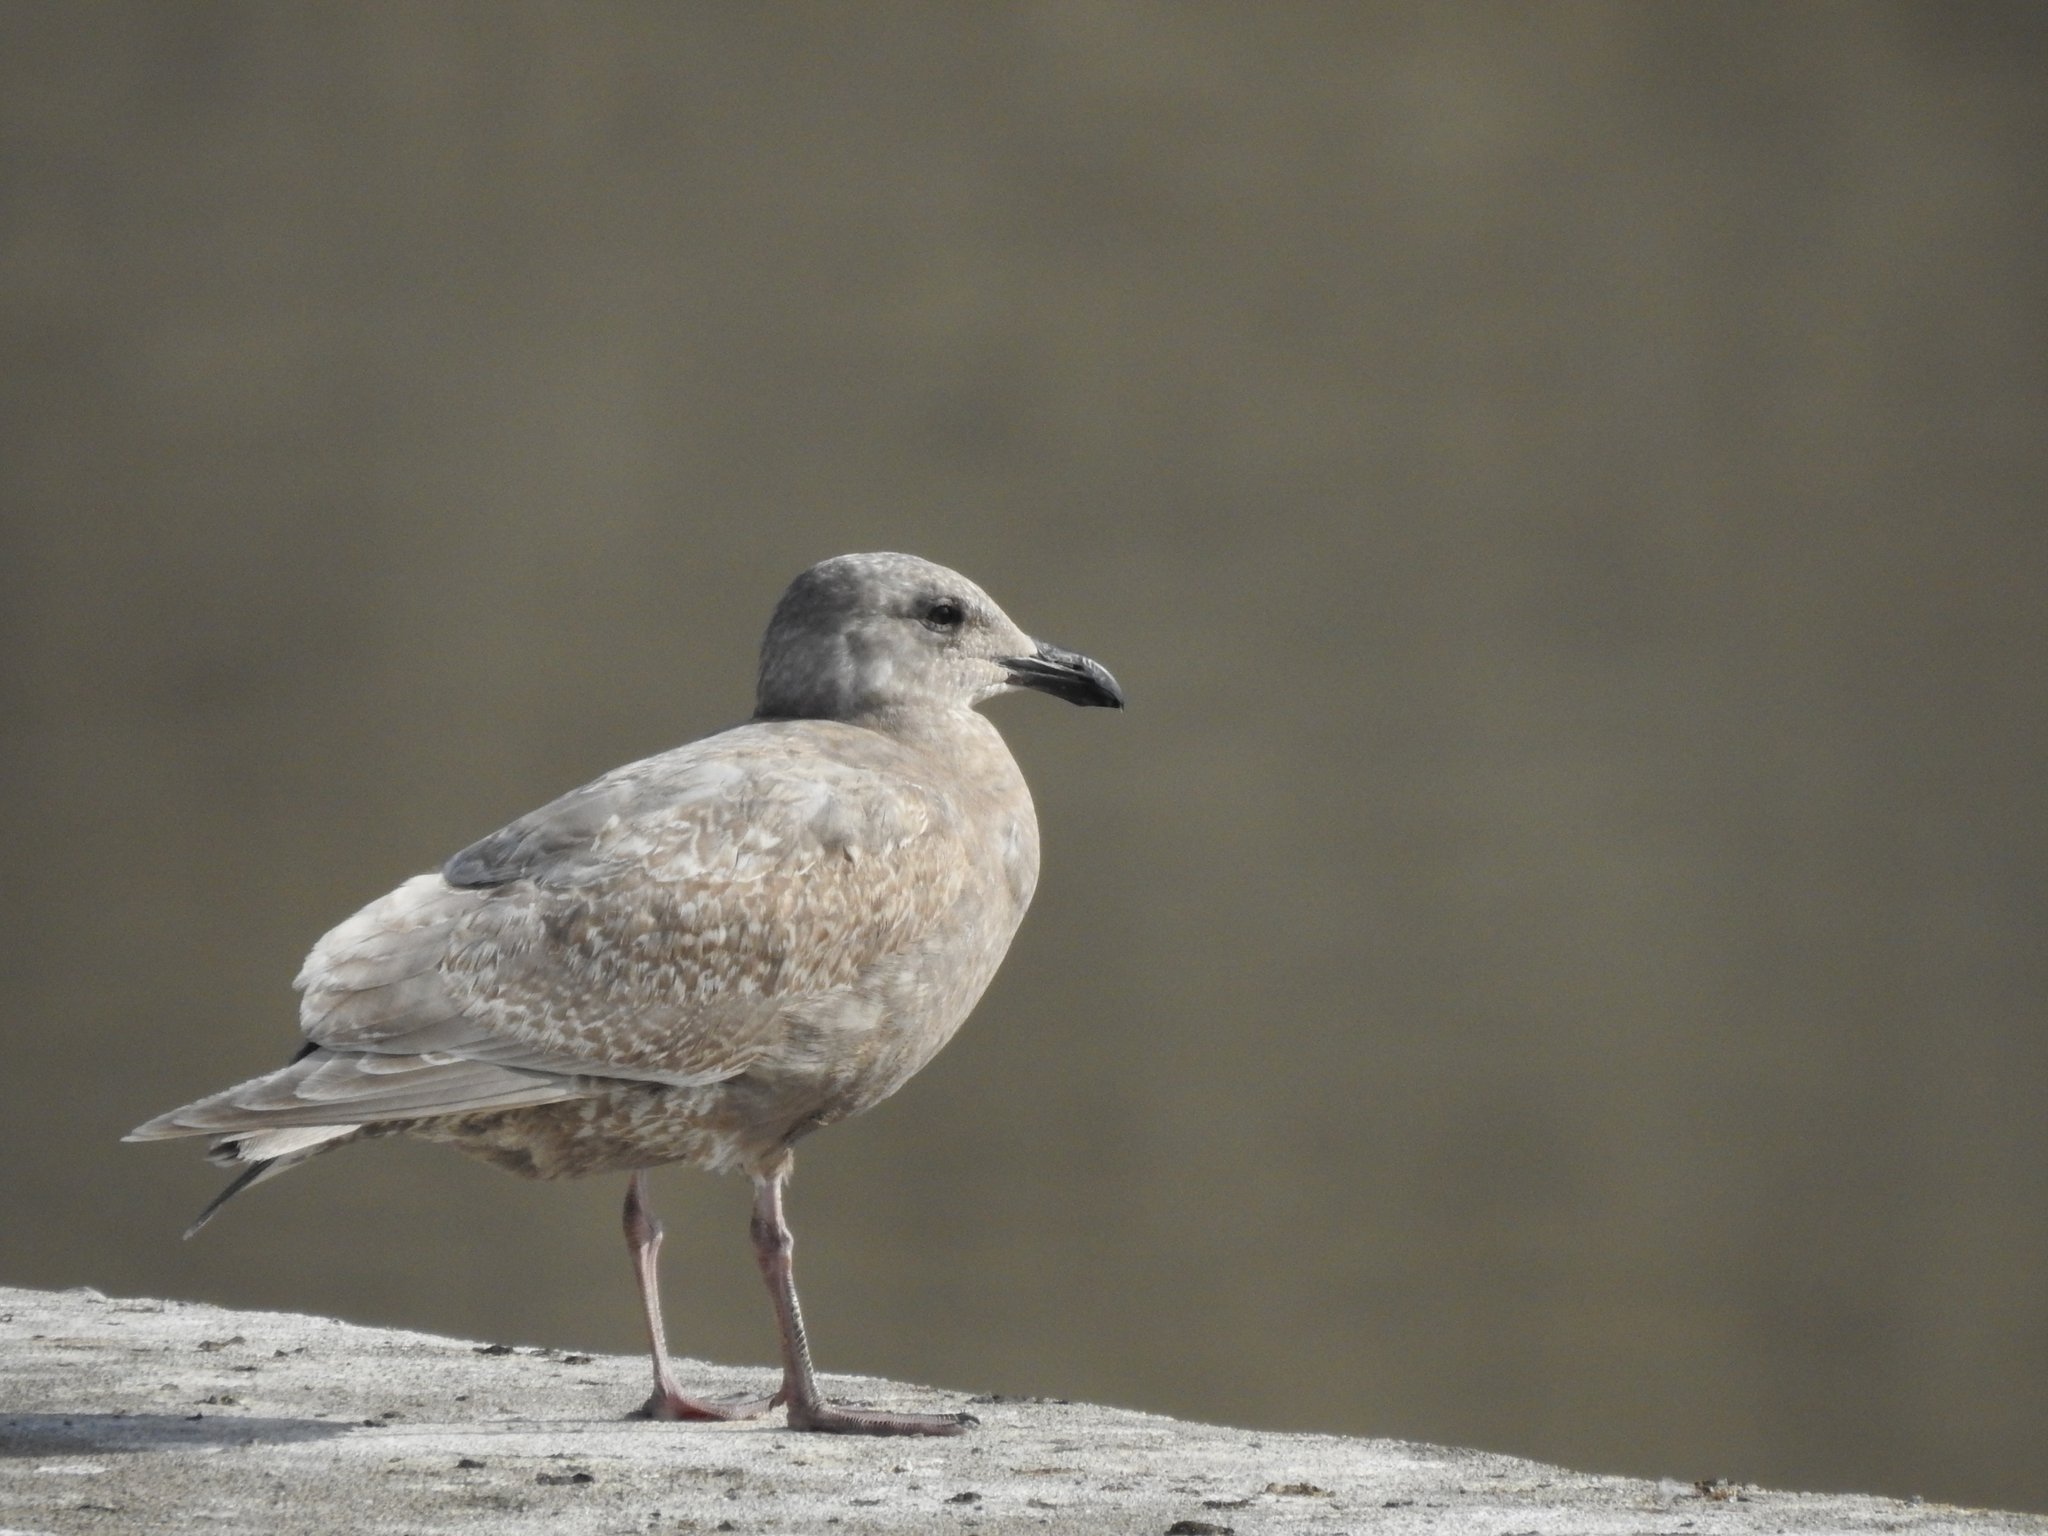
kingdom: Animalia
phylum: Chordata
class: Aves
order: Charadriiformes
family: Laridae
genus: Larus
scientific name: Larus glaucescens
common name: Glaucous-winged gull
